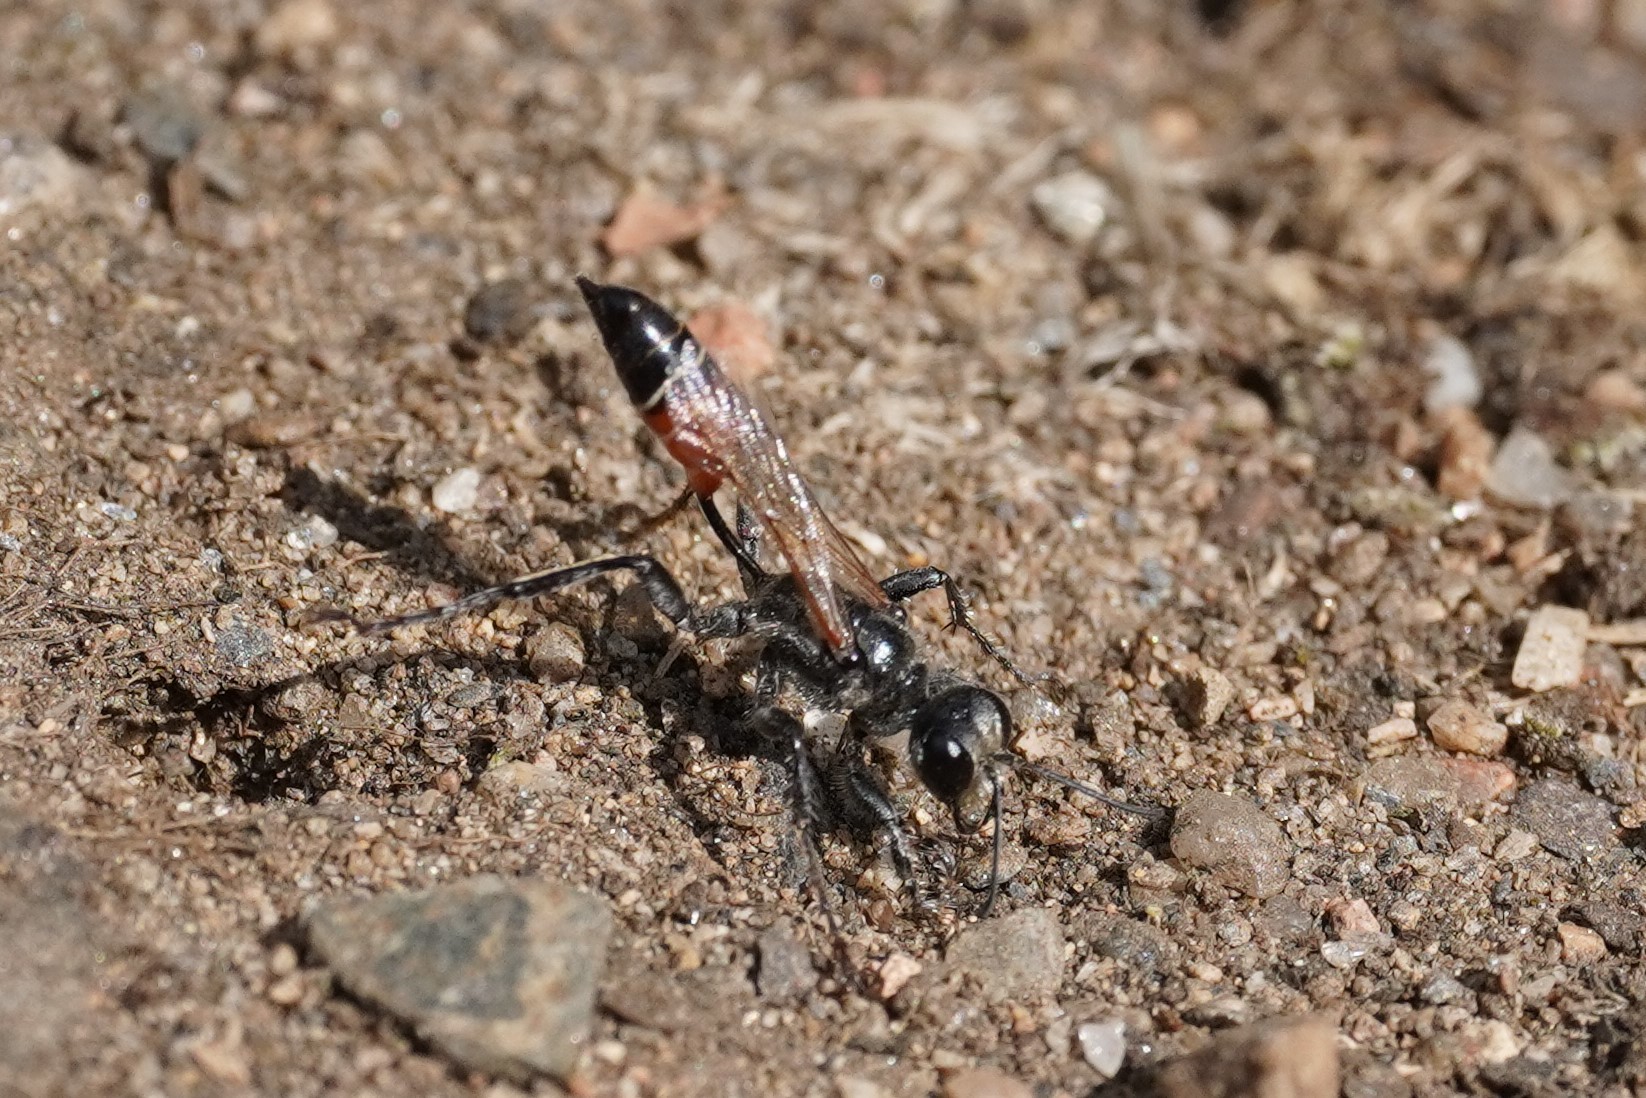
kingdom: Animalia
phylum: Arthropoda
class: Insecta
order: Hymenoptera
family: Sphecidae
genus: Prionyx
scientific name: Prionyx kirbii
